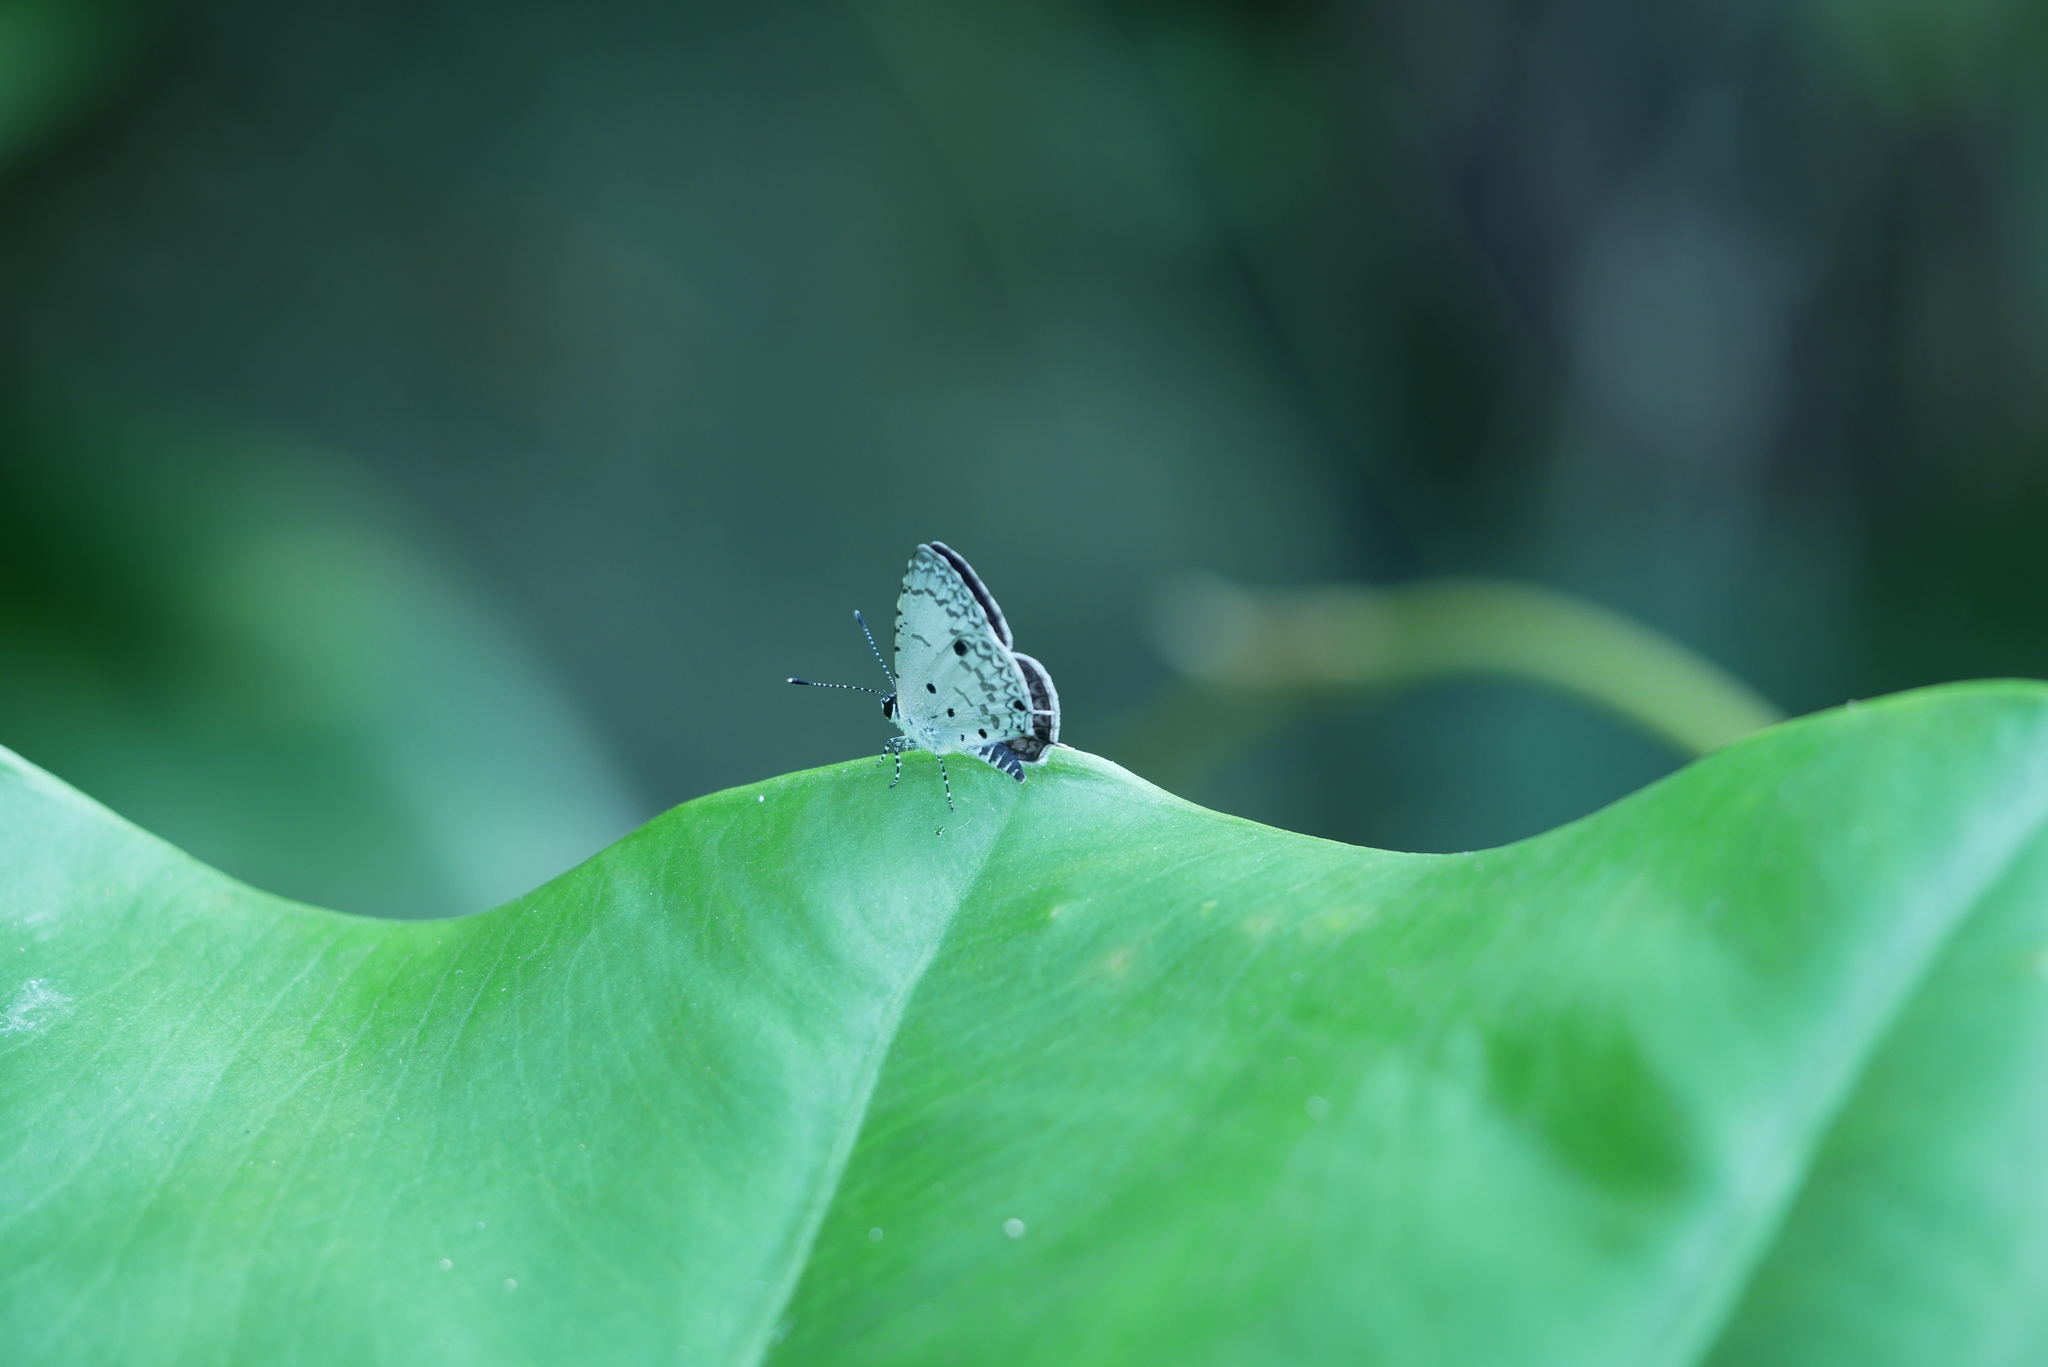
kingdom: Animalia
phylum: Arthropoda
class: Insecta
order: Lepidoptera
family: Lycaenidae
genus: Megisba
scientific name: Megisba malaya
